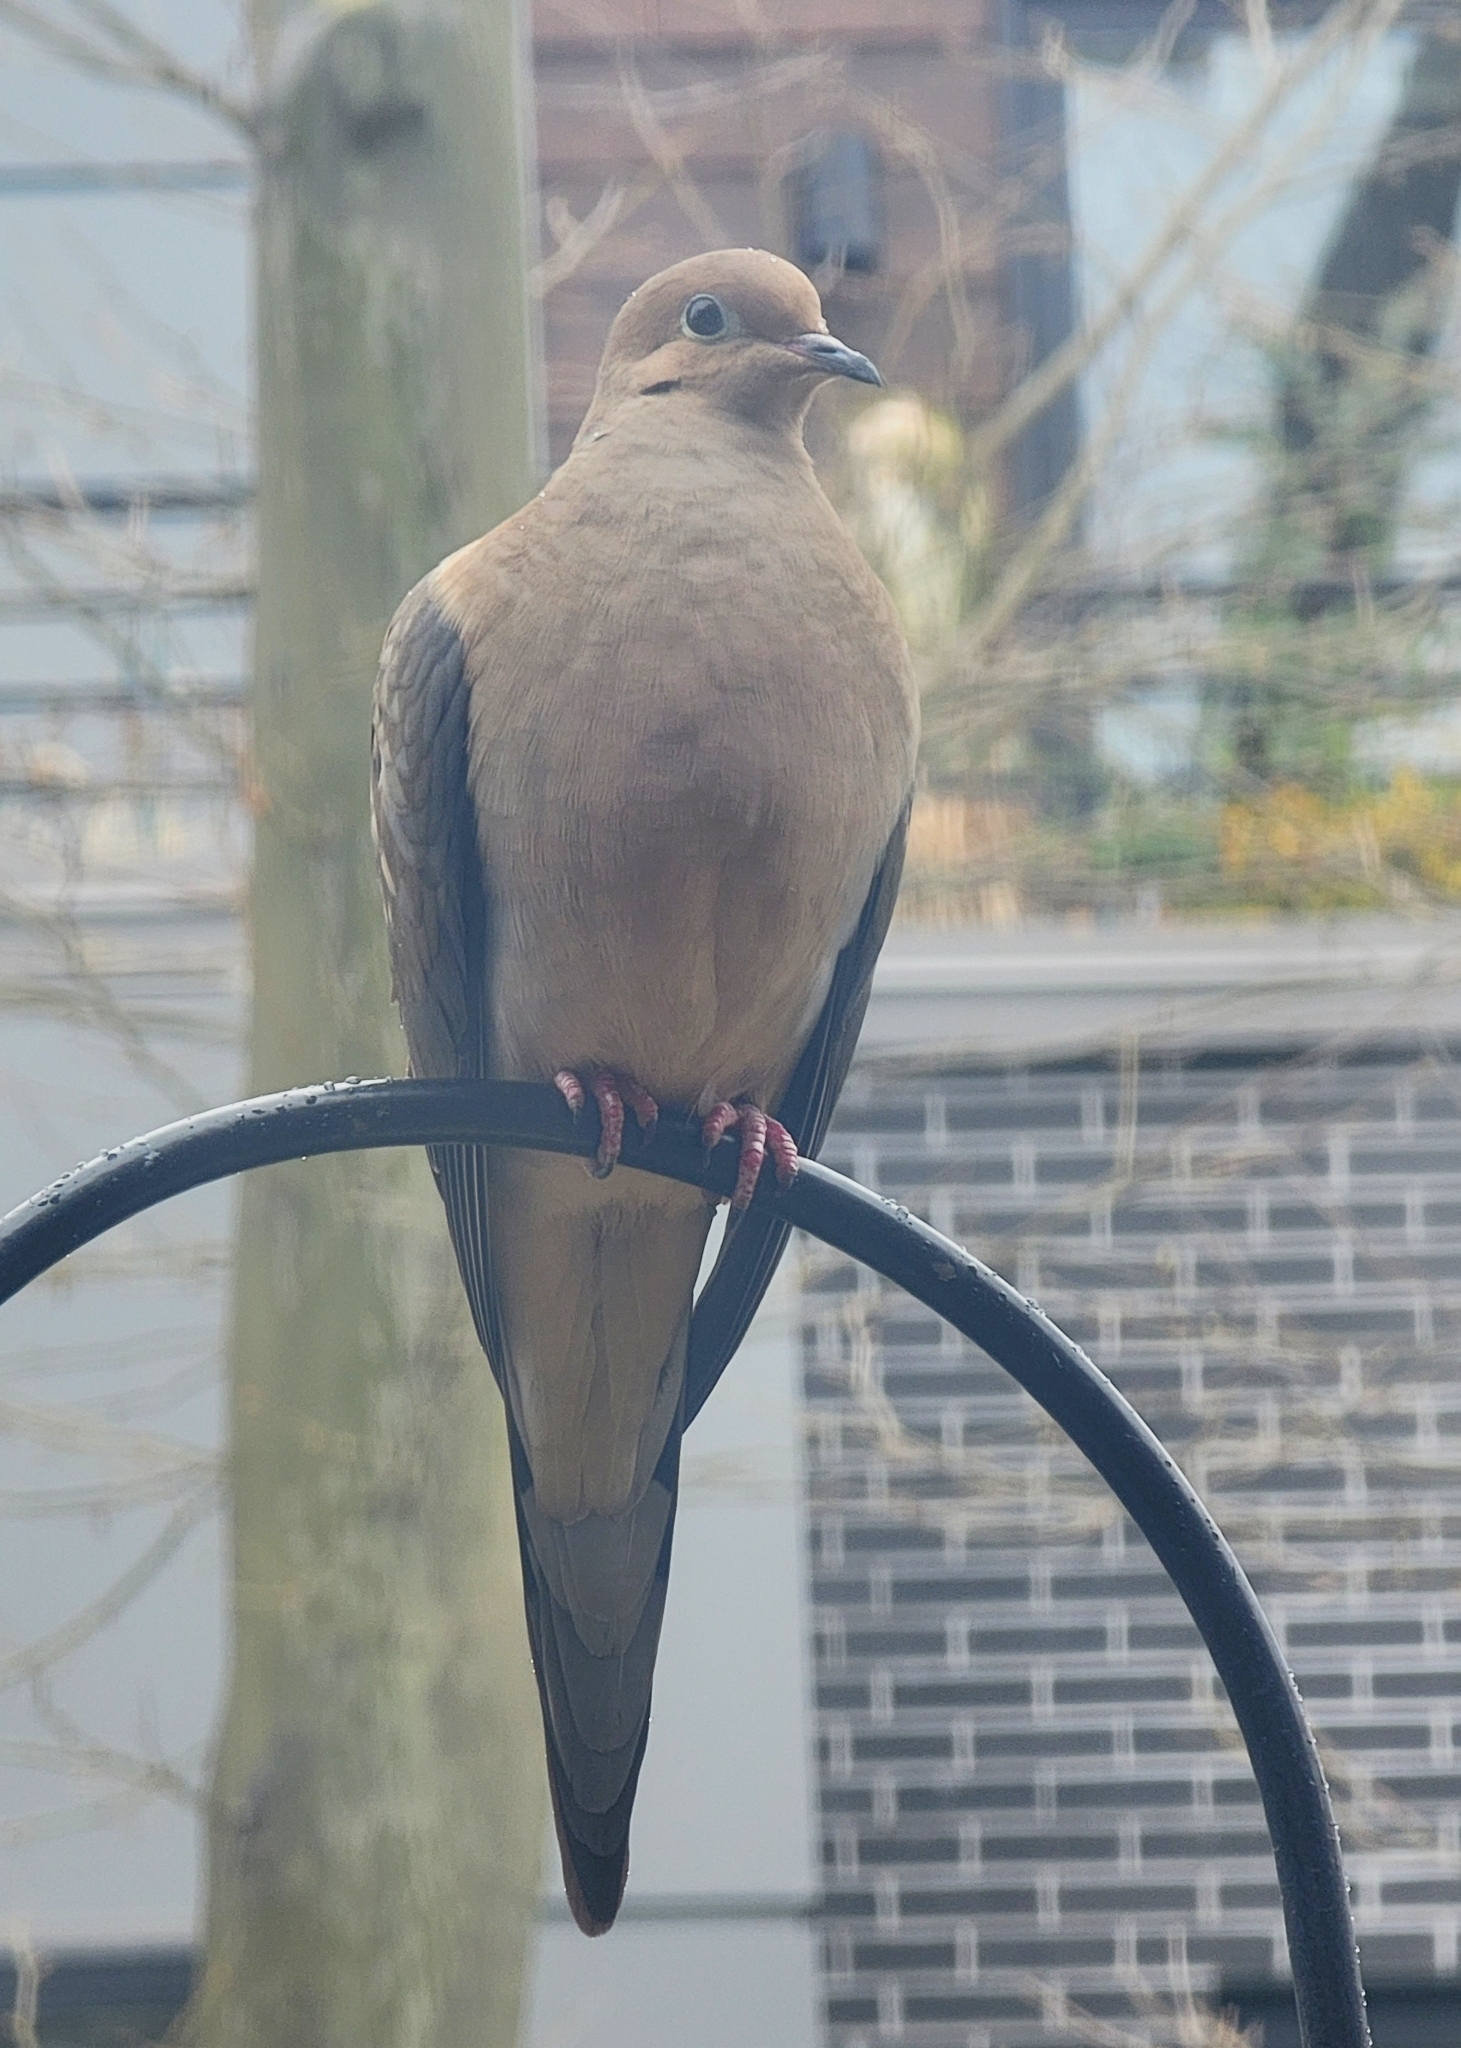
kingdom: Animalia
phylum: Chordata
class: Aves
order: Columbiformes
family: Columbidae
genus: Zenaida
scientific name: Zenaida macroura
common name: Mourning dove
